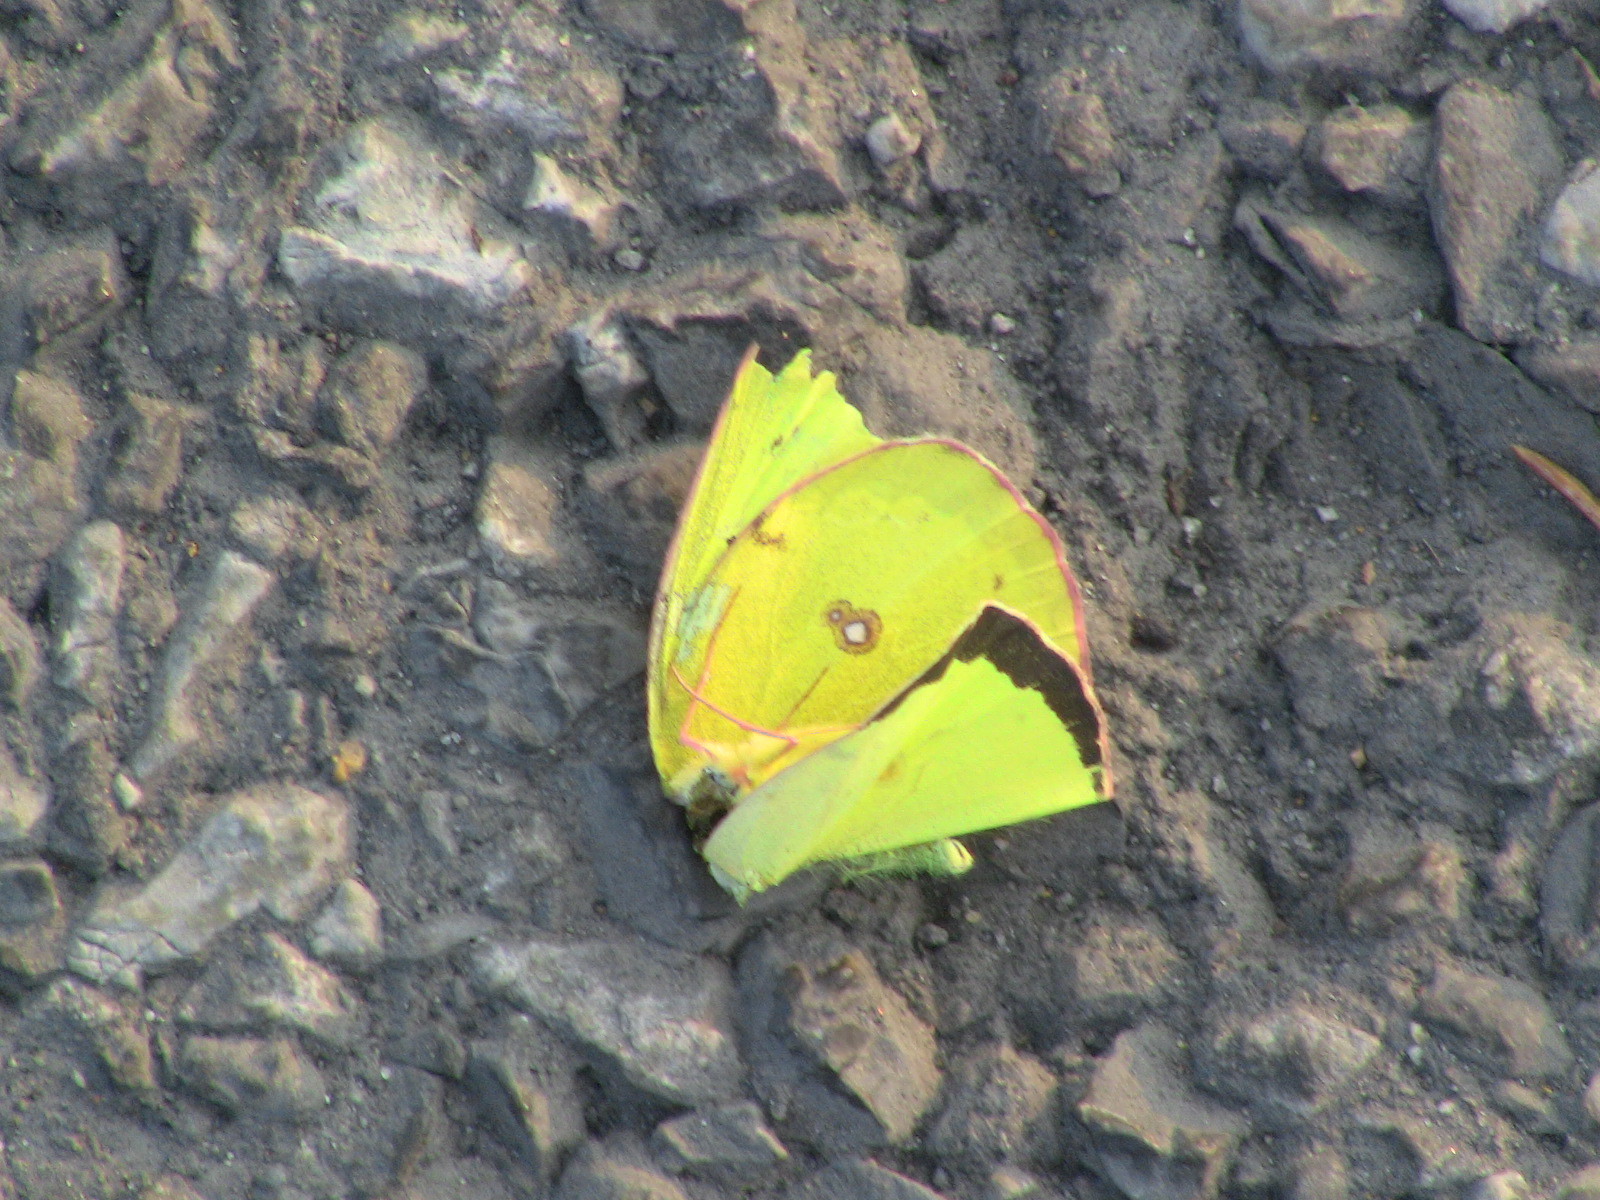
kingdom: Animalia
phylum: Arthropoda
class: Insecta
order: Lepidoptera
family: Pieridae
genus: Colias
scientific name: Colias philodice
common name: Clouded sulphur
